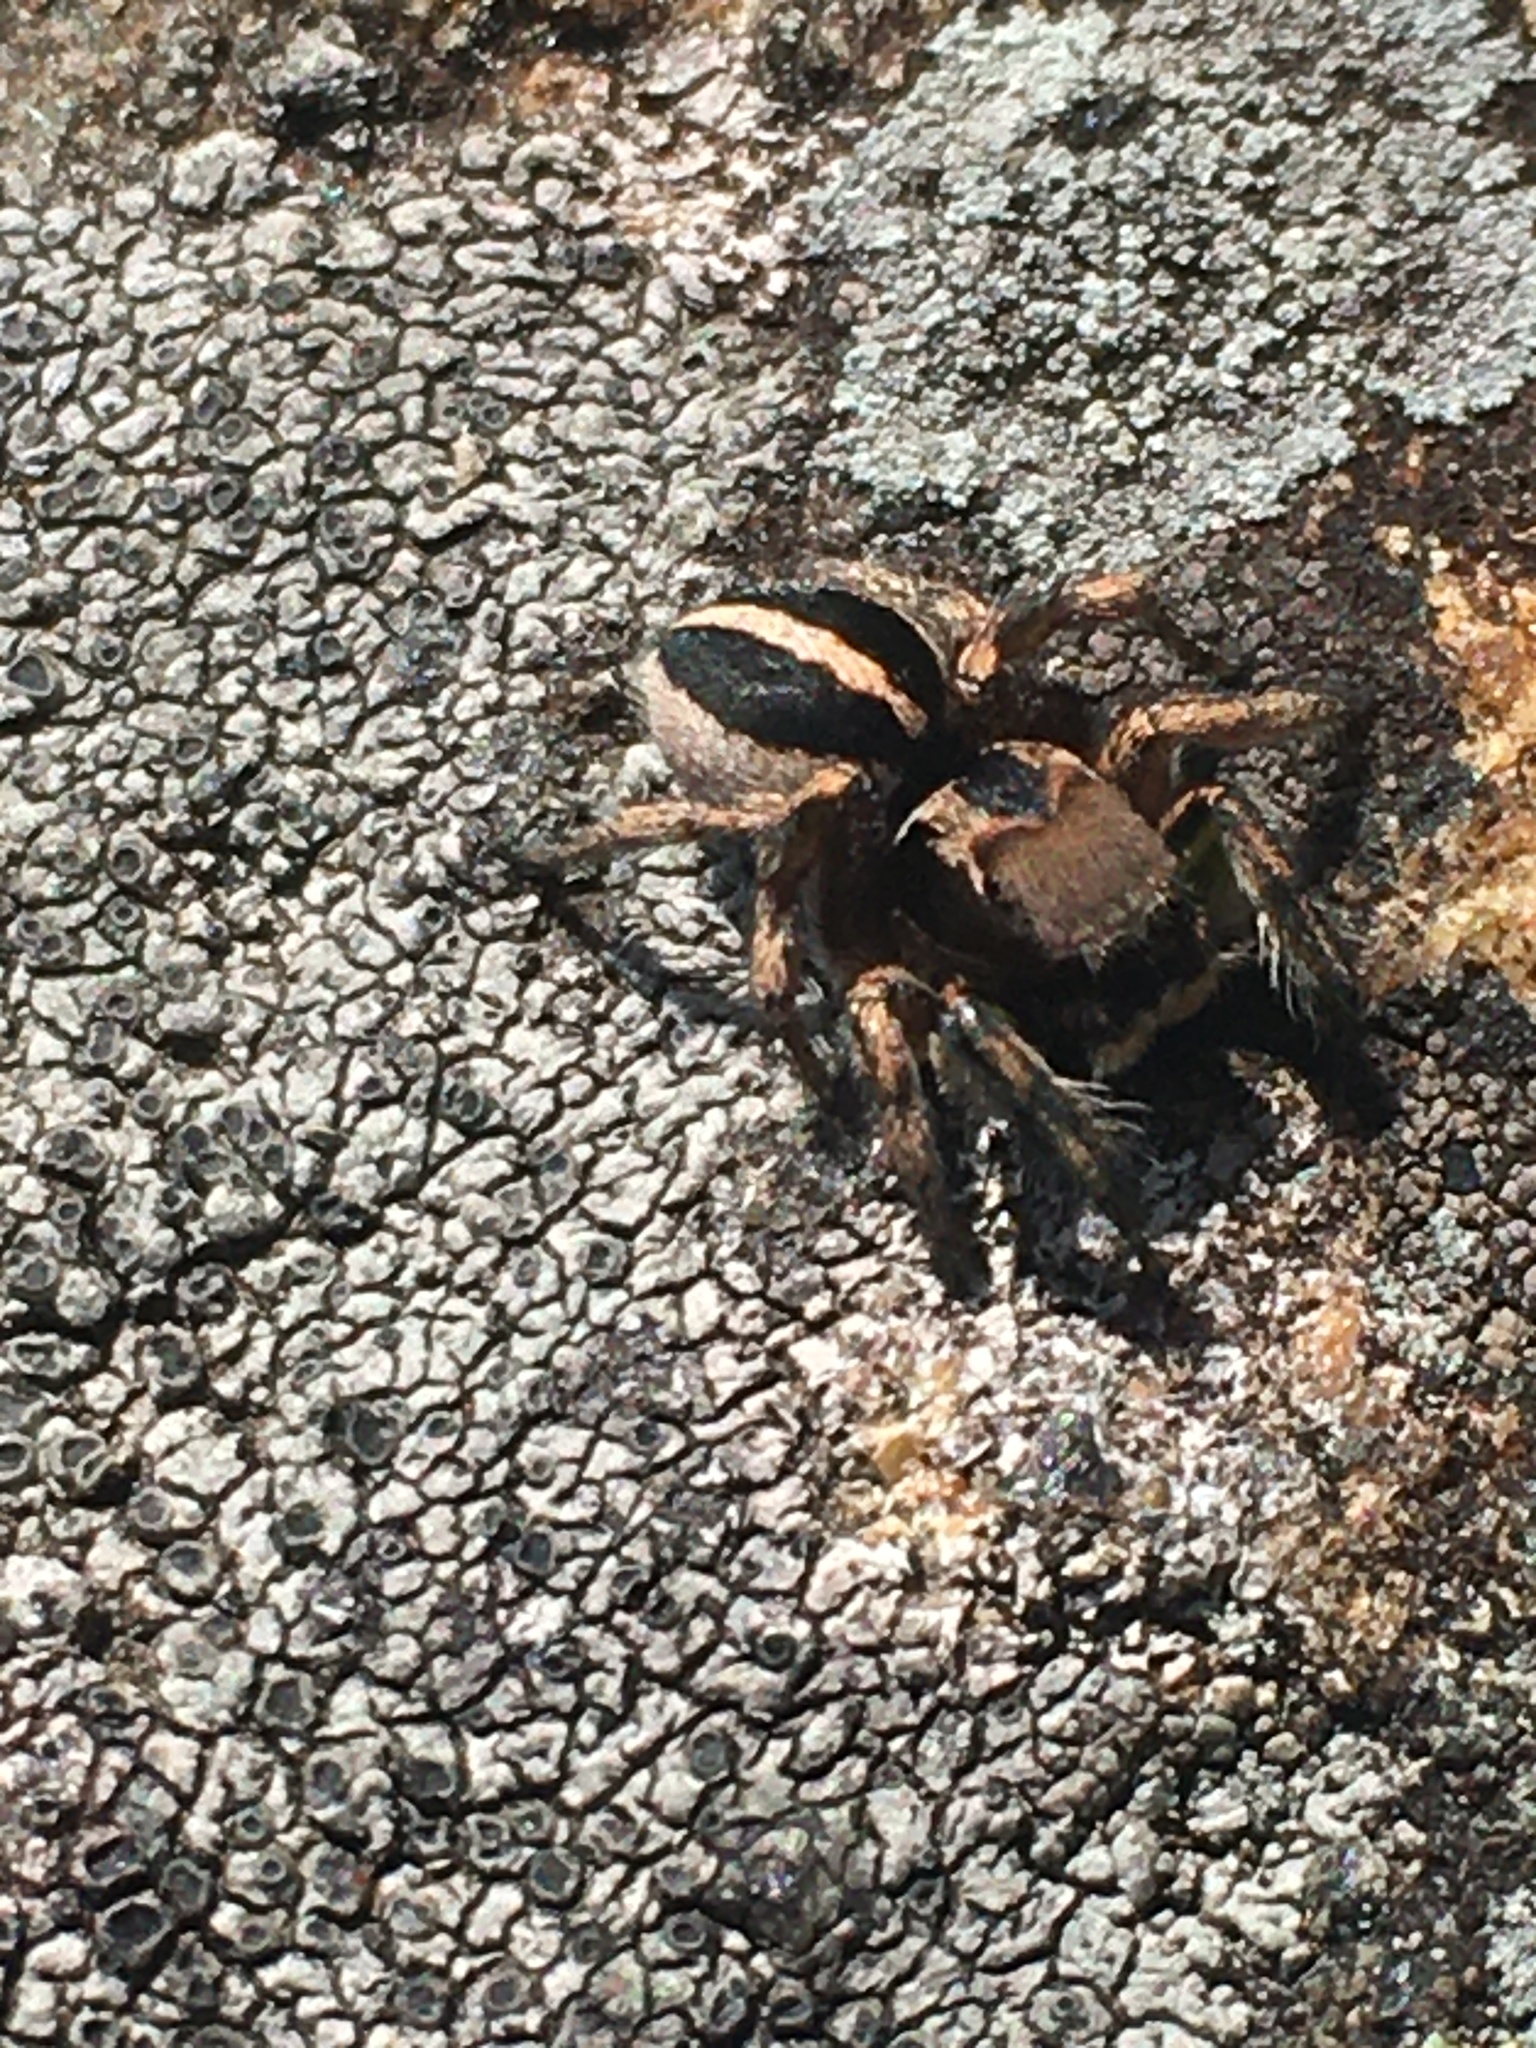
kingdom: Animalia
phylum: Arthropoda
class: Arachnida
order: Araneae
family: Salticidae
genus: Habronattus
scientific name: Habronattus calcaratus
